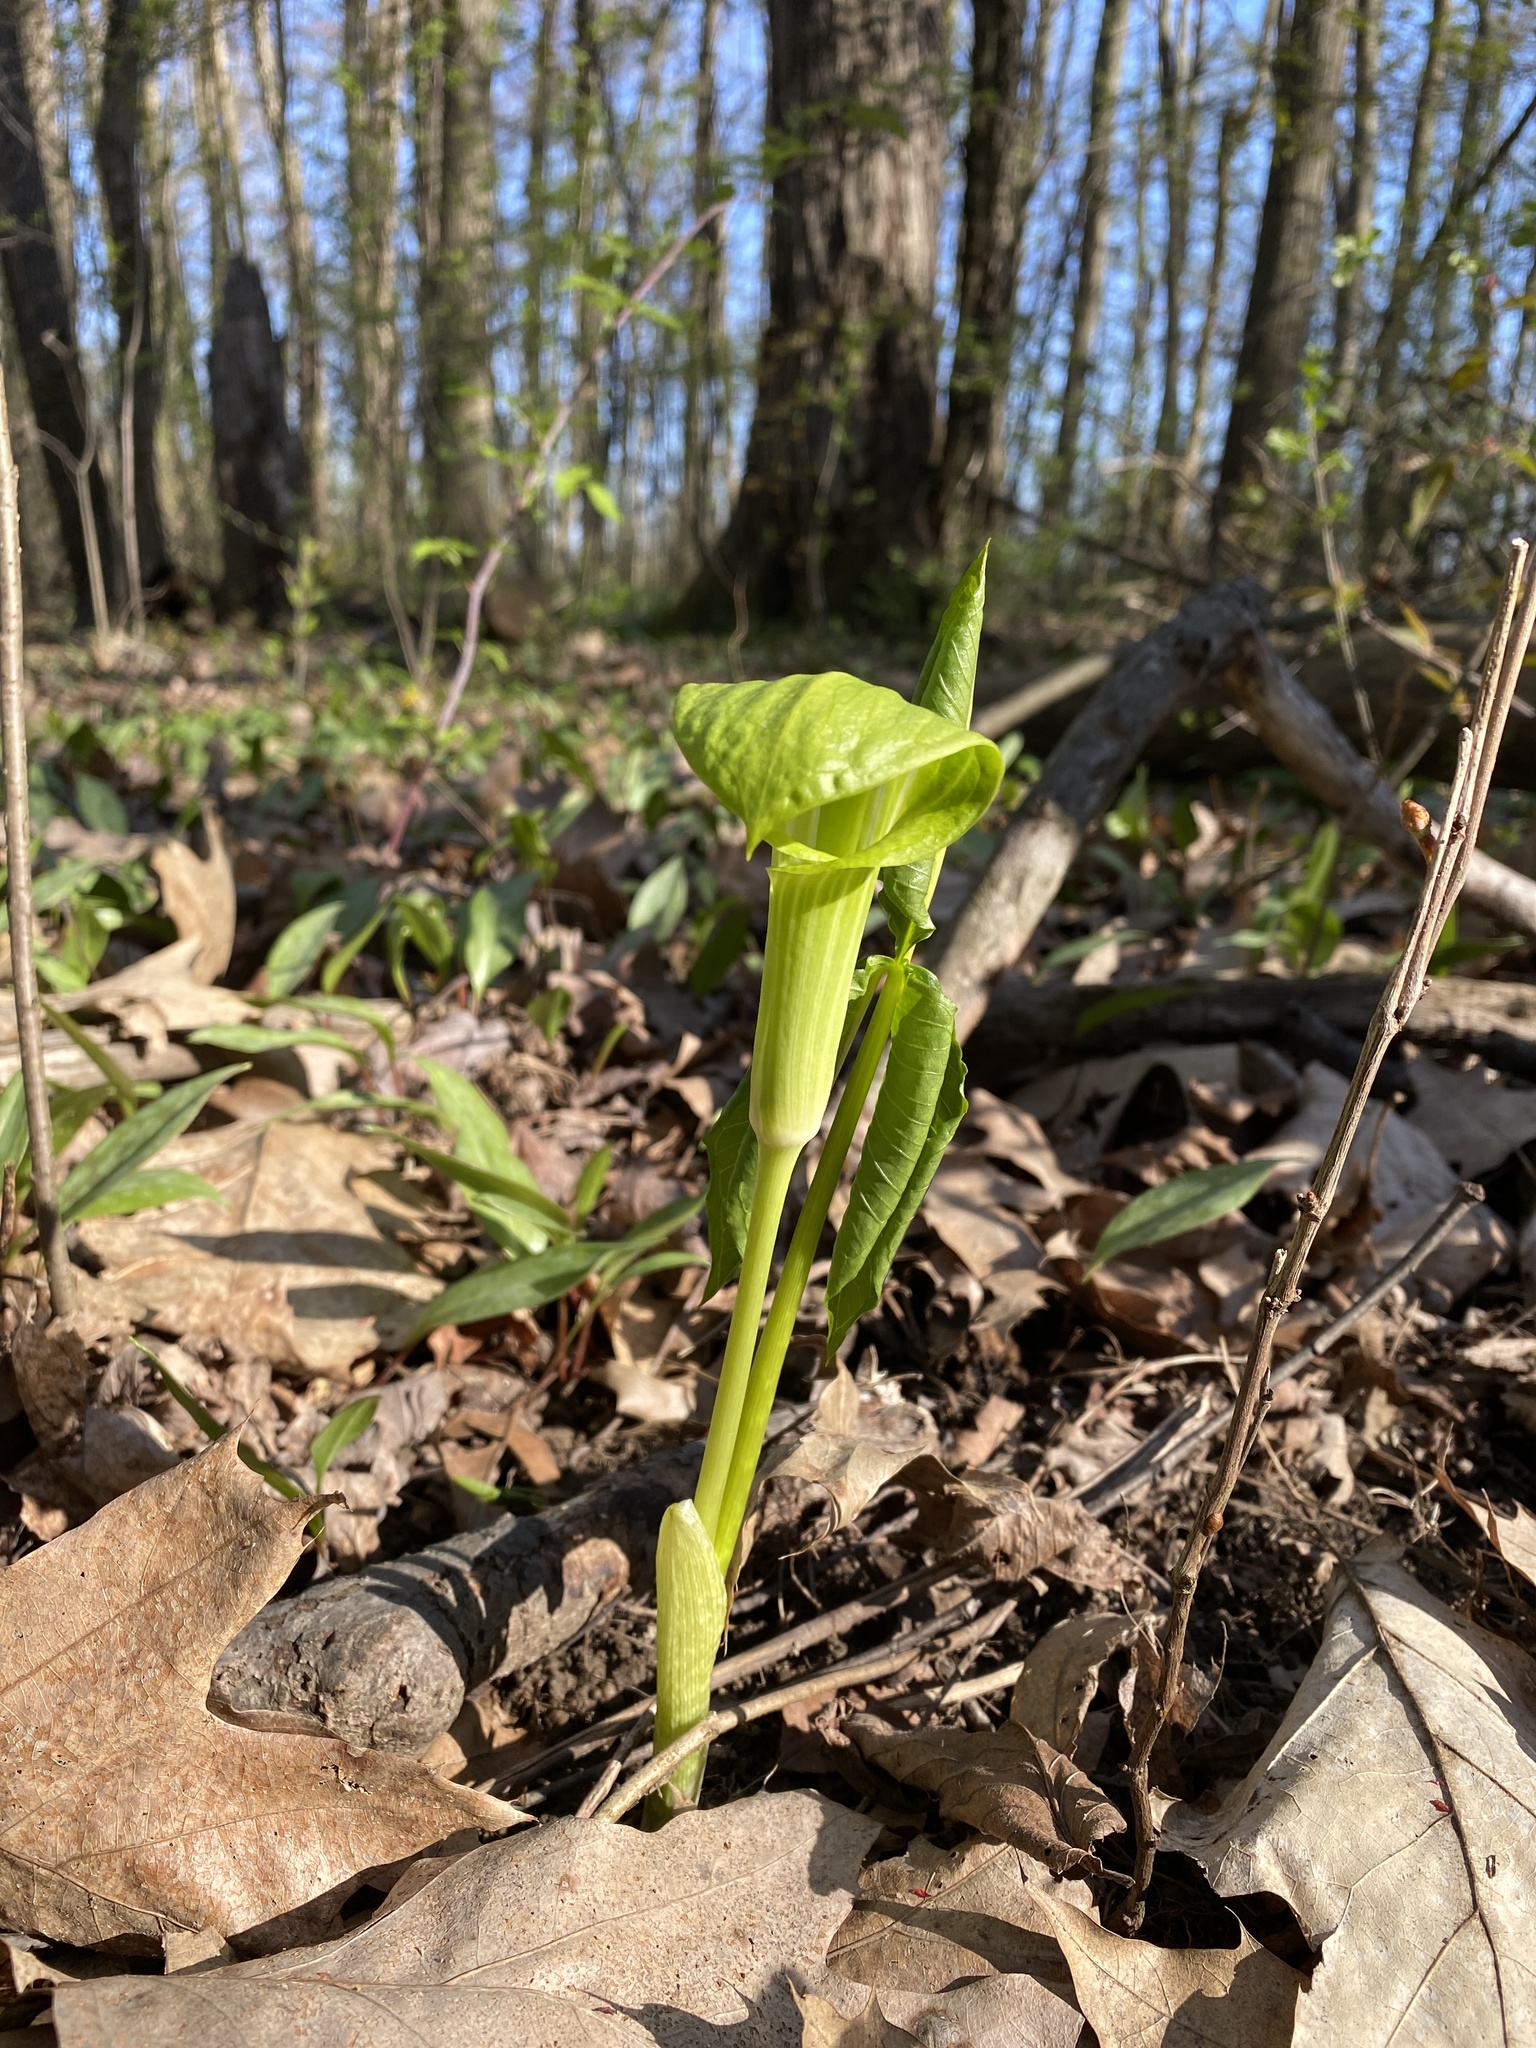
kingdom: Plantae
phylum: Tracheophyta
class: Liliopsida
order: Alismatales
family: Araceae
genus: Arisaema
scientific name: Arisaema triphyllum
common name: Jack-in-the-pulpit
